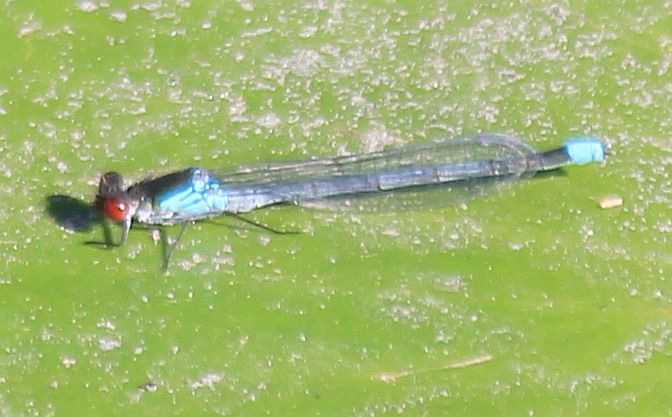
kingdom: Animalia
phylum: Arthropoda
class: Insecta
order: Odonata
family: Coenagrionidae
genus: Erythromma
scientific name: Erythromma najas
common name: Red-eyed damselfly
